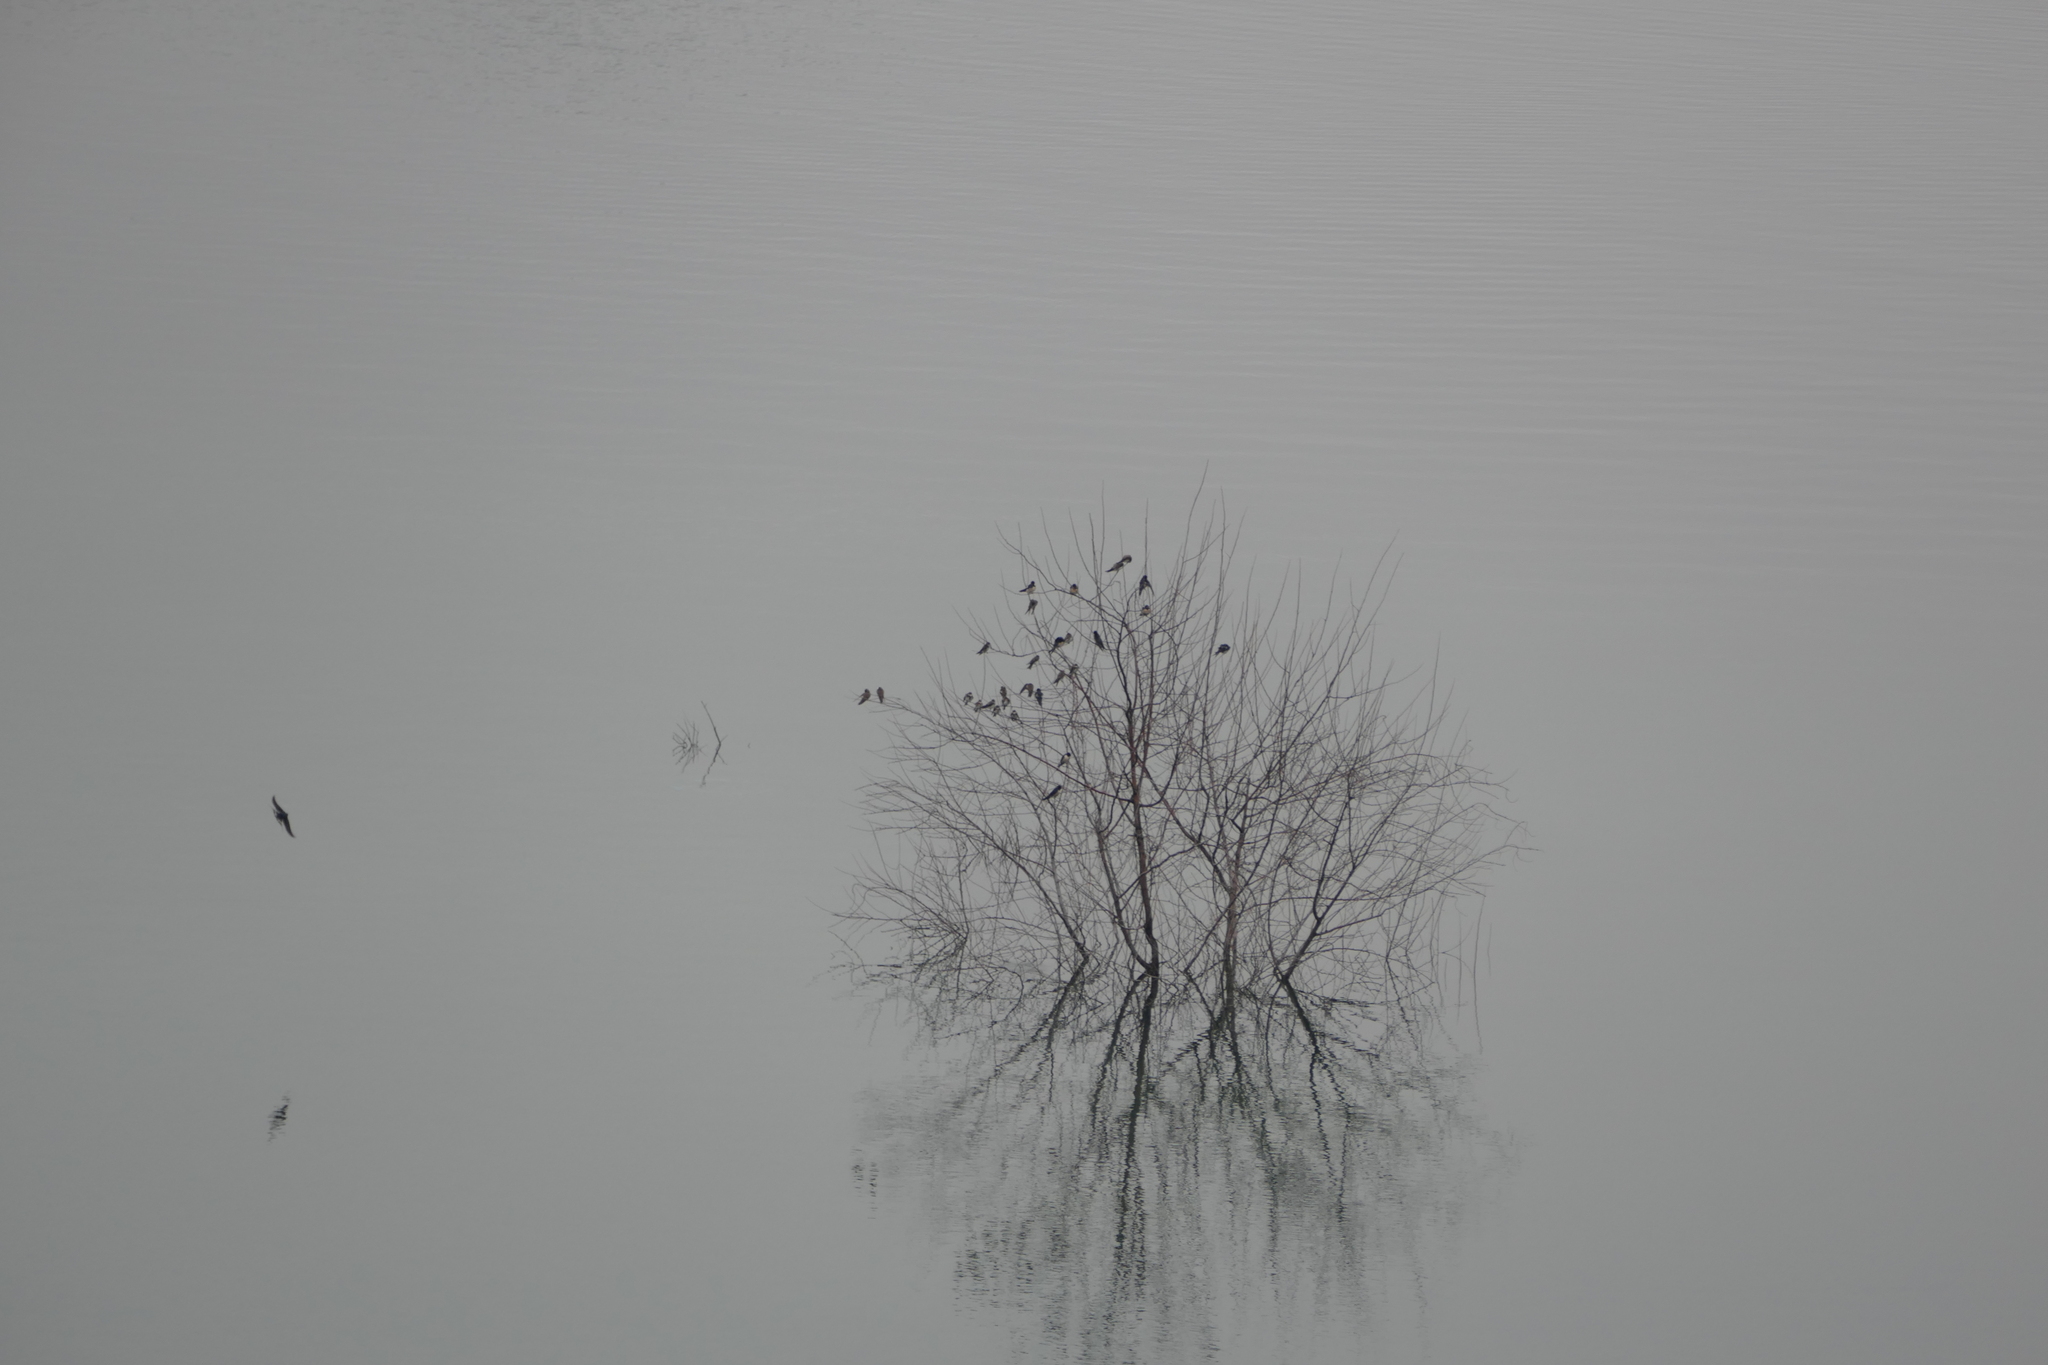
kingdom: Animalia
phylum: Chordata
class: Aves
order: Passeriformes
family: Hirundinidae
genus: Riparia
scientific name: Riparia riparia
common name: Sand martin
